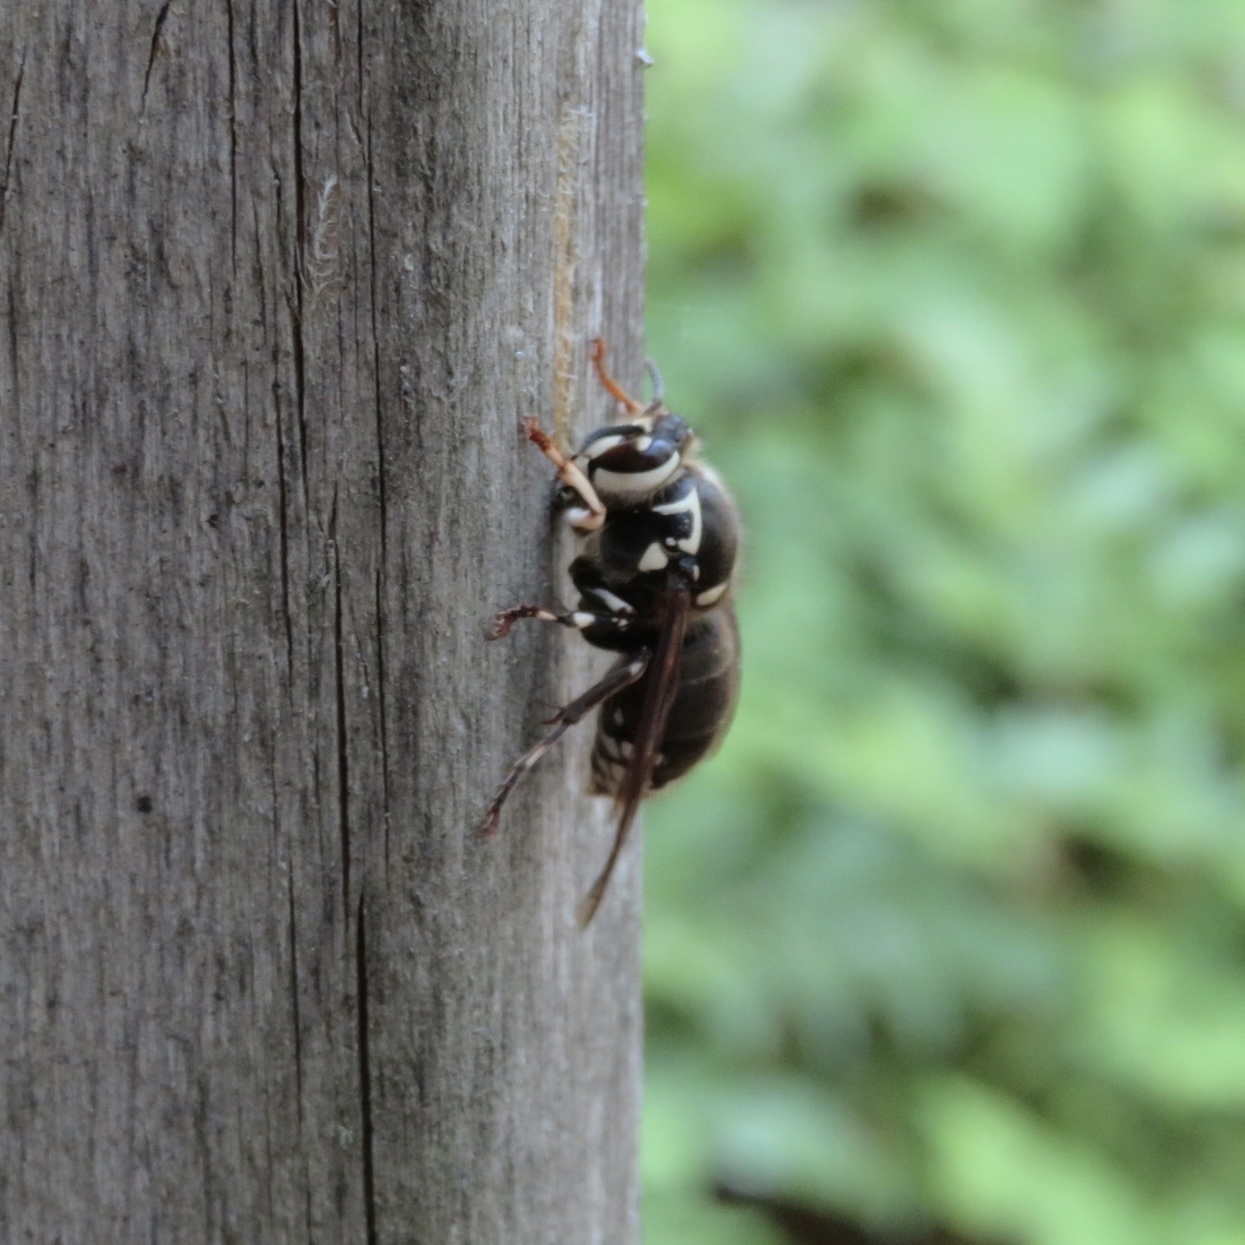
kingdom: Animalia
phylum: Arthropoda
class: Insecta
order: Hymenoptera
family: Vespidae
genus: Dolichovespula
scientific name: Dolichovespula maculata
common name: Bald-faced hornet
